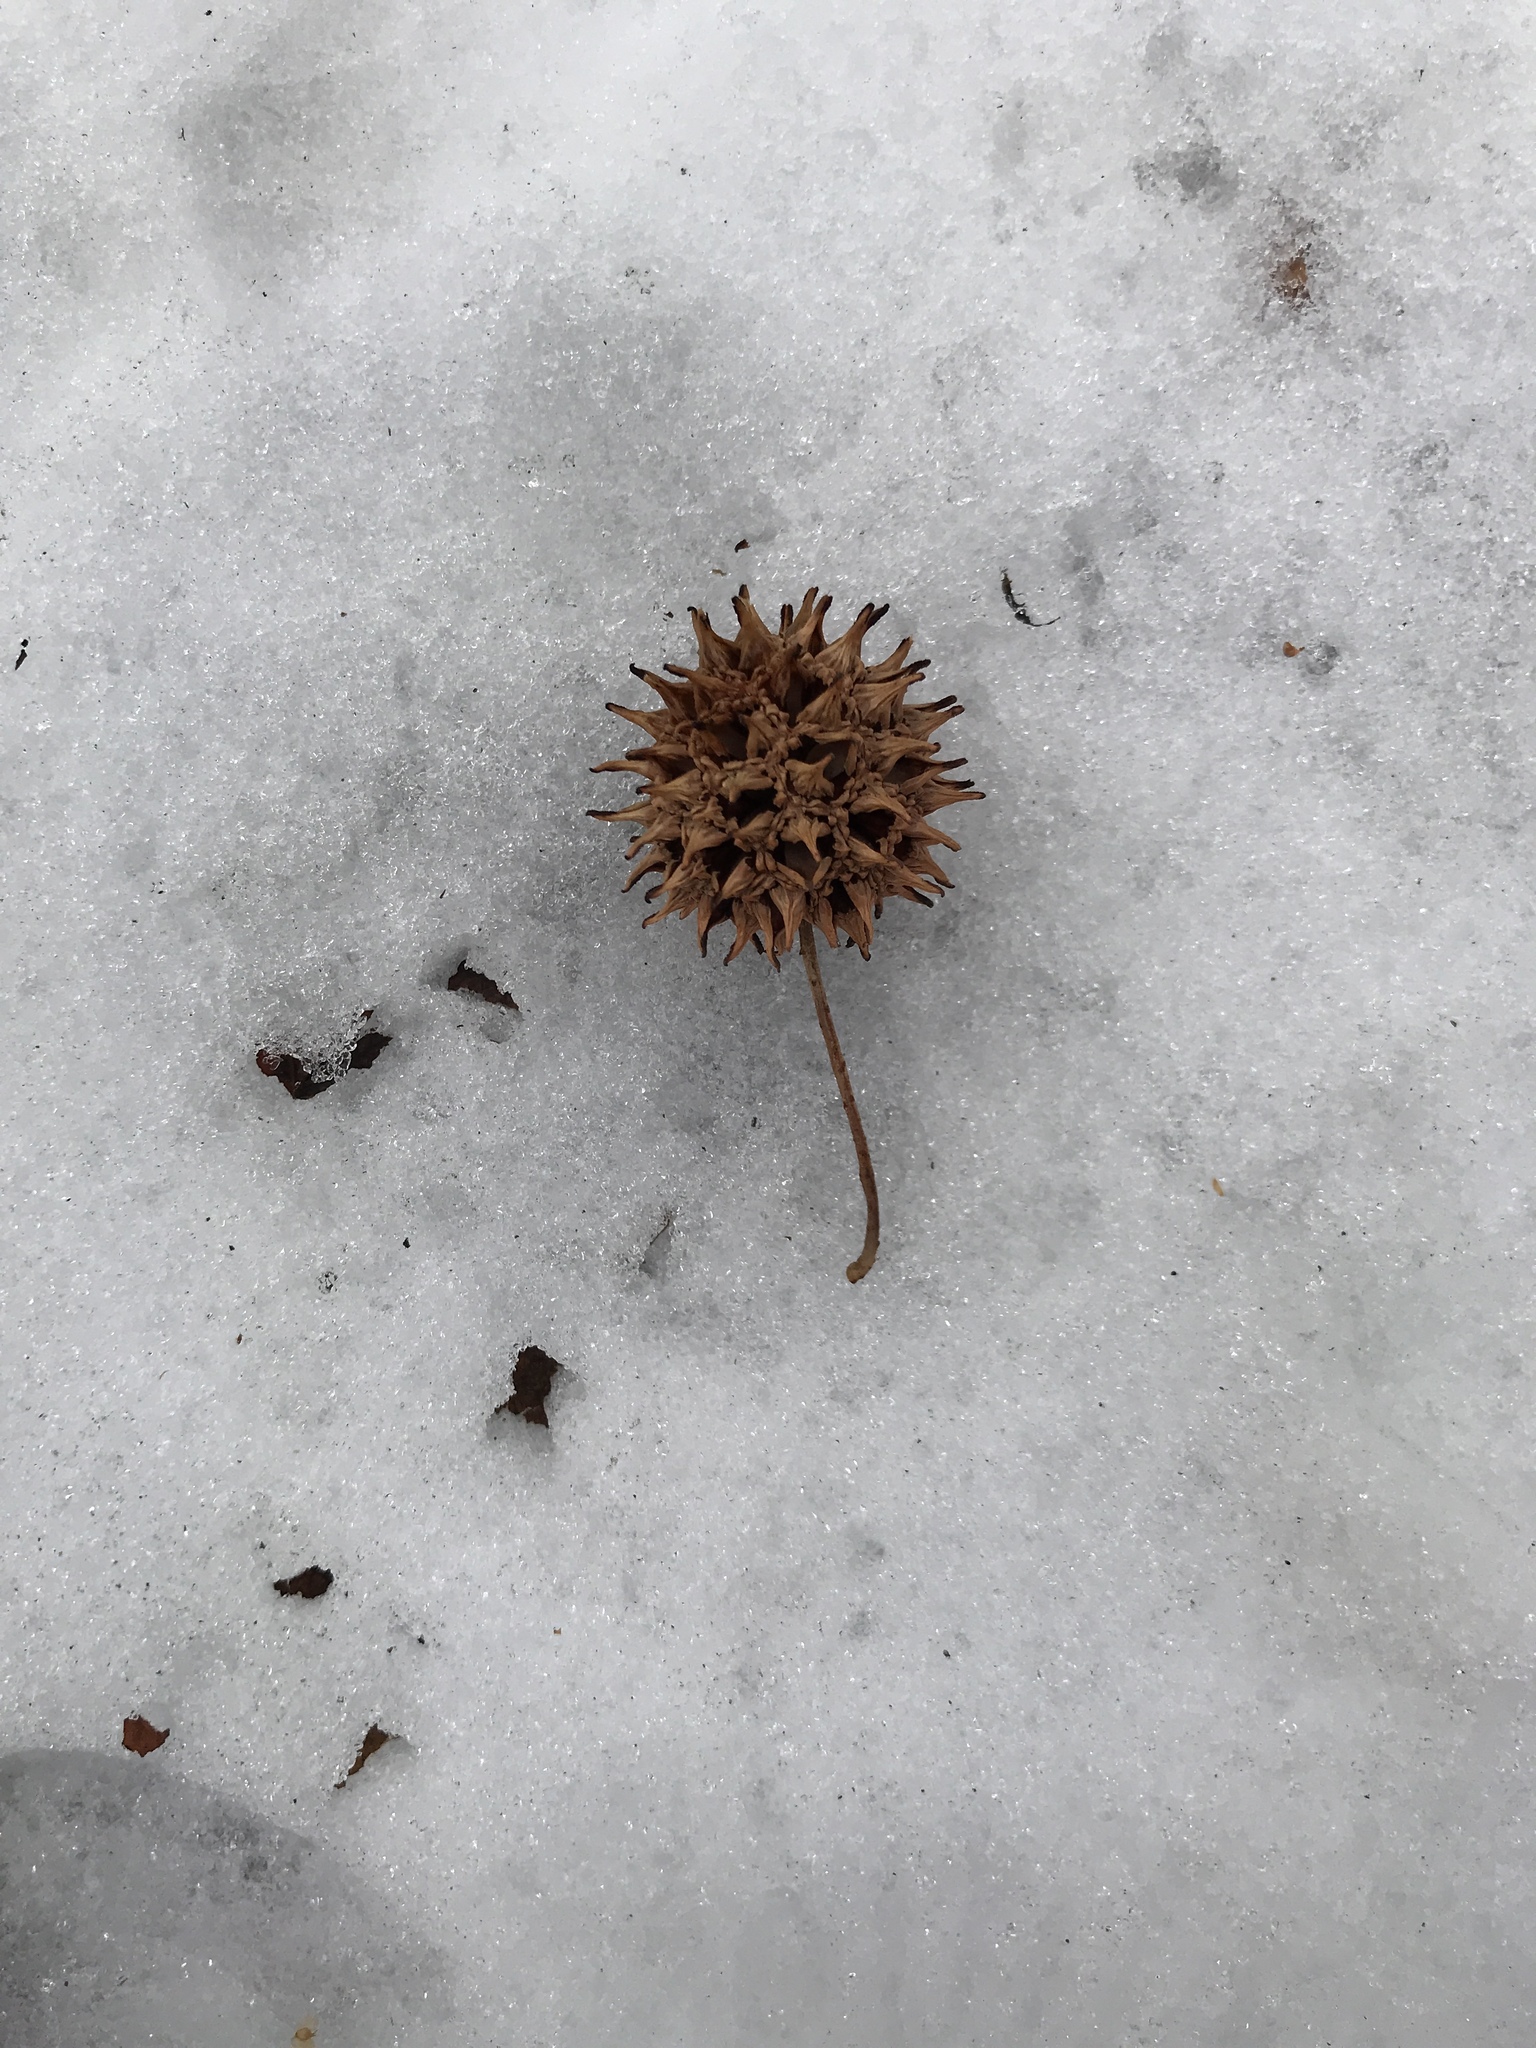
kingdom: Plantae
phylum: Tracheophyta
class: Magnoliopsida
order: Saxifragales
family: Altingiaceae
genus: Liquidambar
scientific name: Liquidambar styraciflua
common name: Sweet gum
